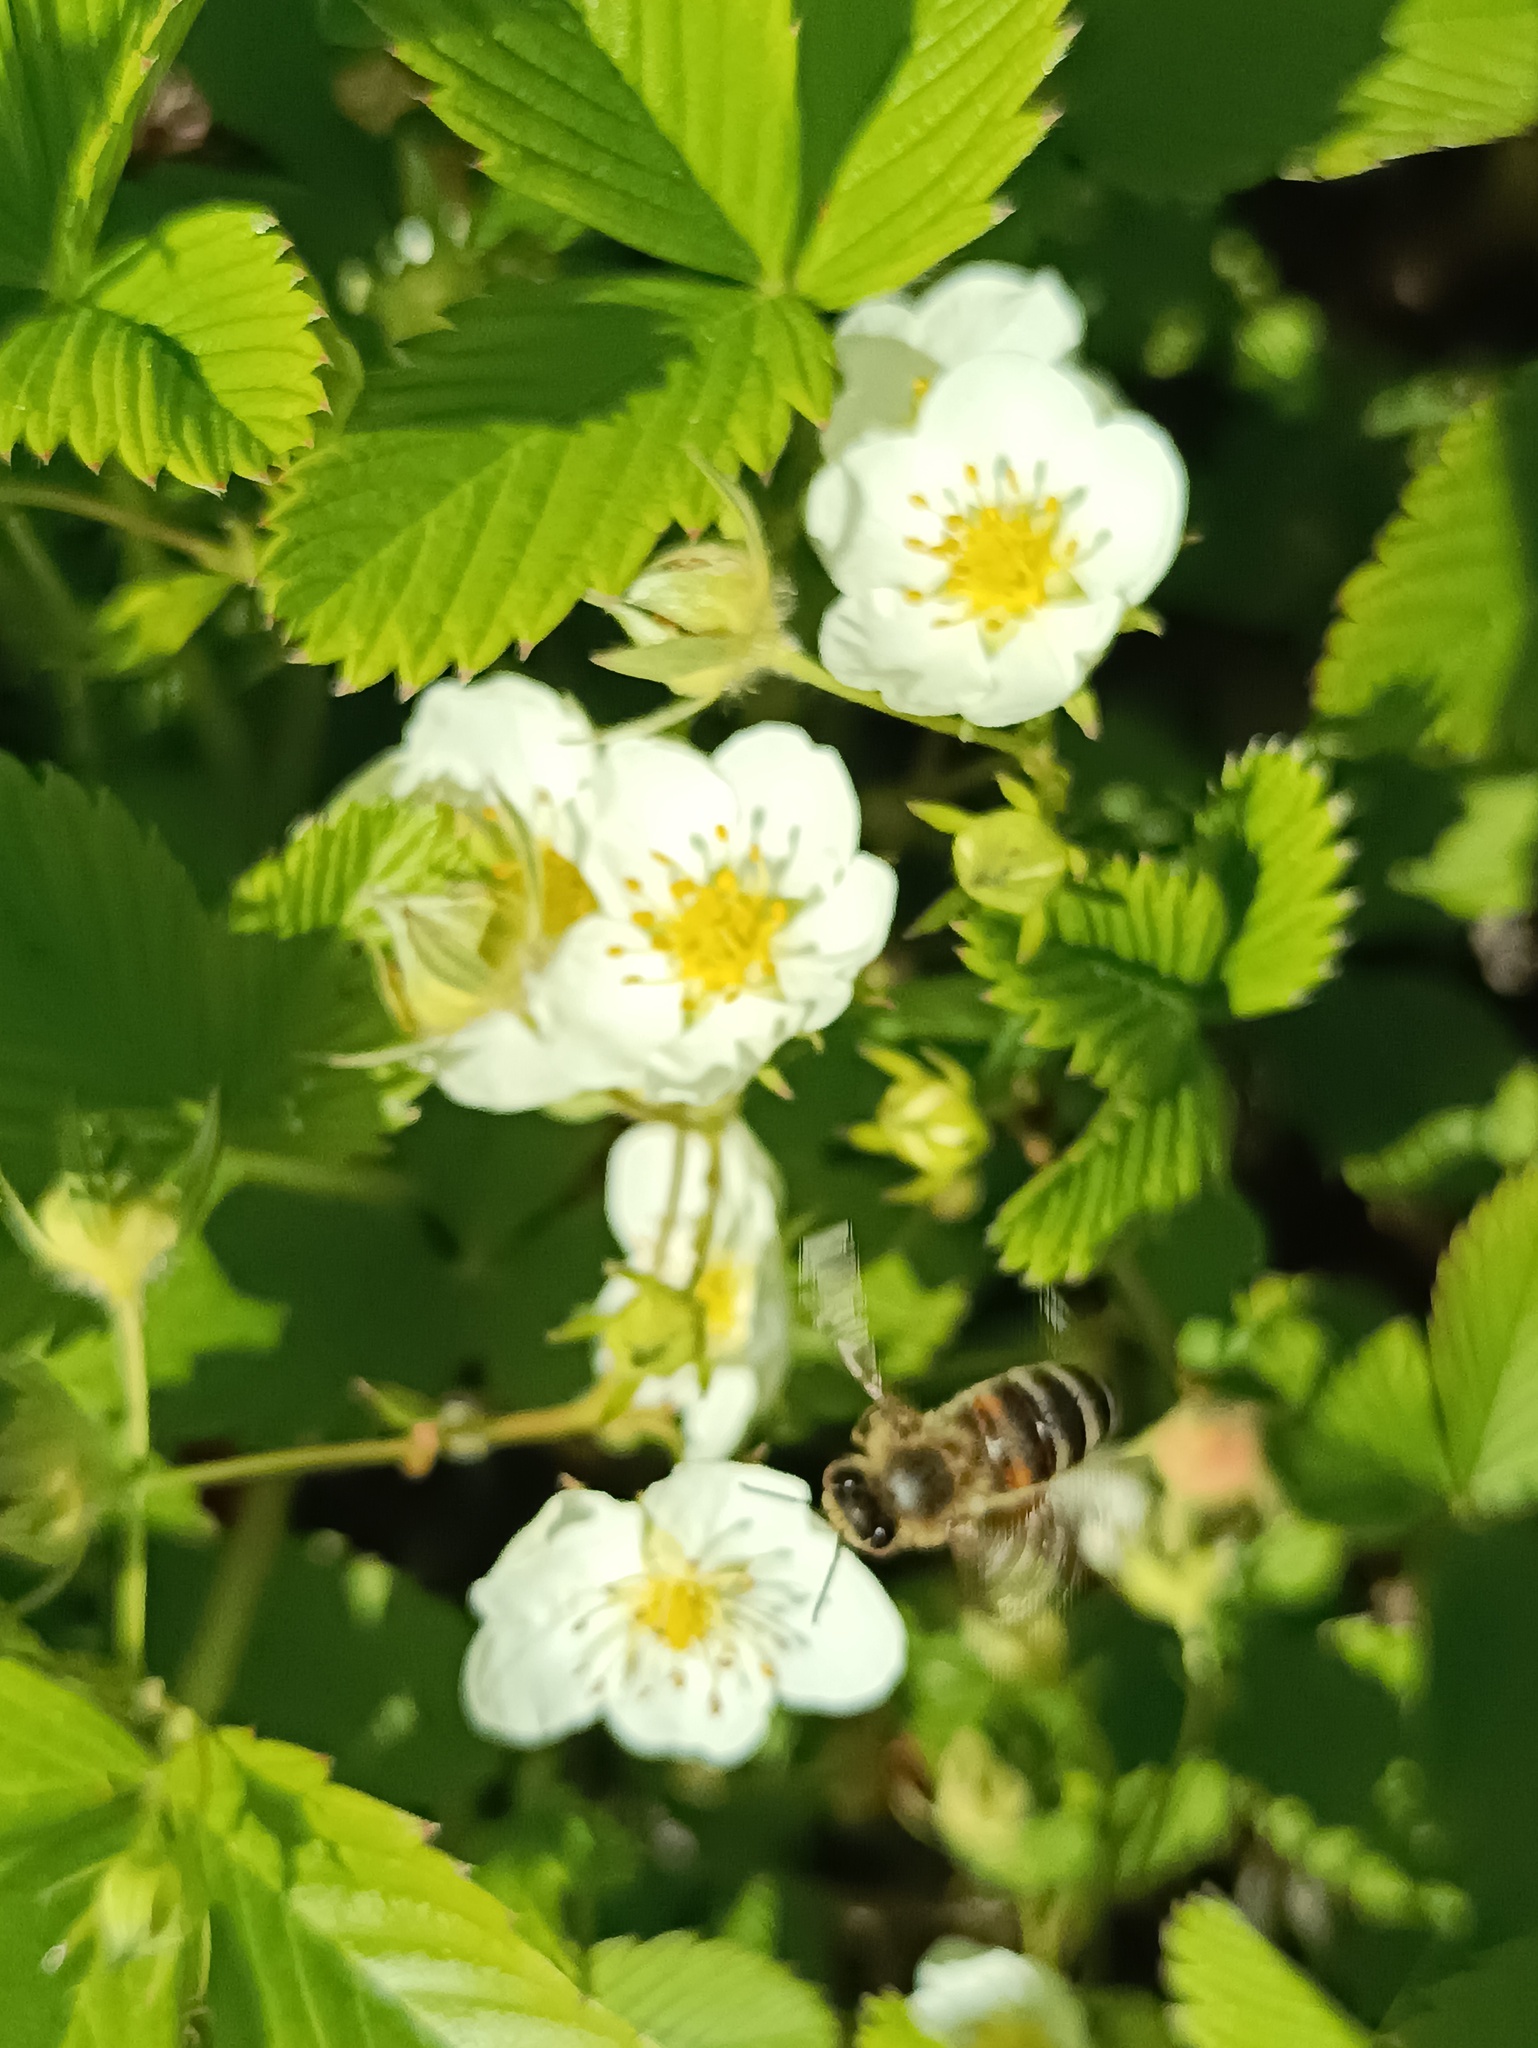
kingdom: Animalia
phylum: Arthropoda
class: Insecta
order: Hymenoptera
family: Apidae
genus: Apis
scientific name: Apis mellifera
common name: Honey bee
